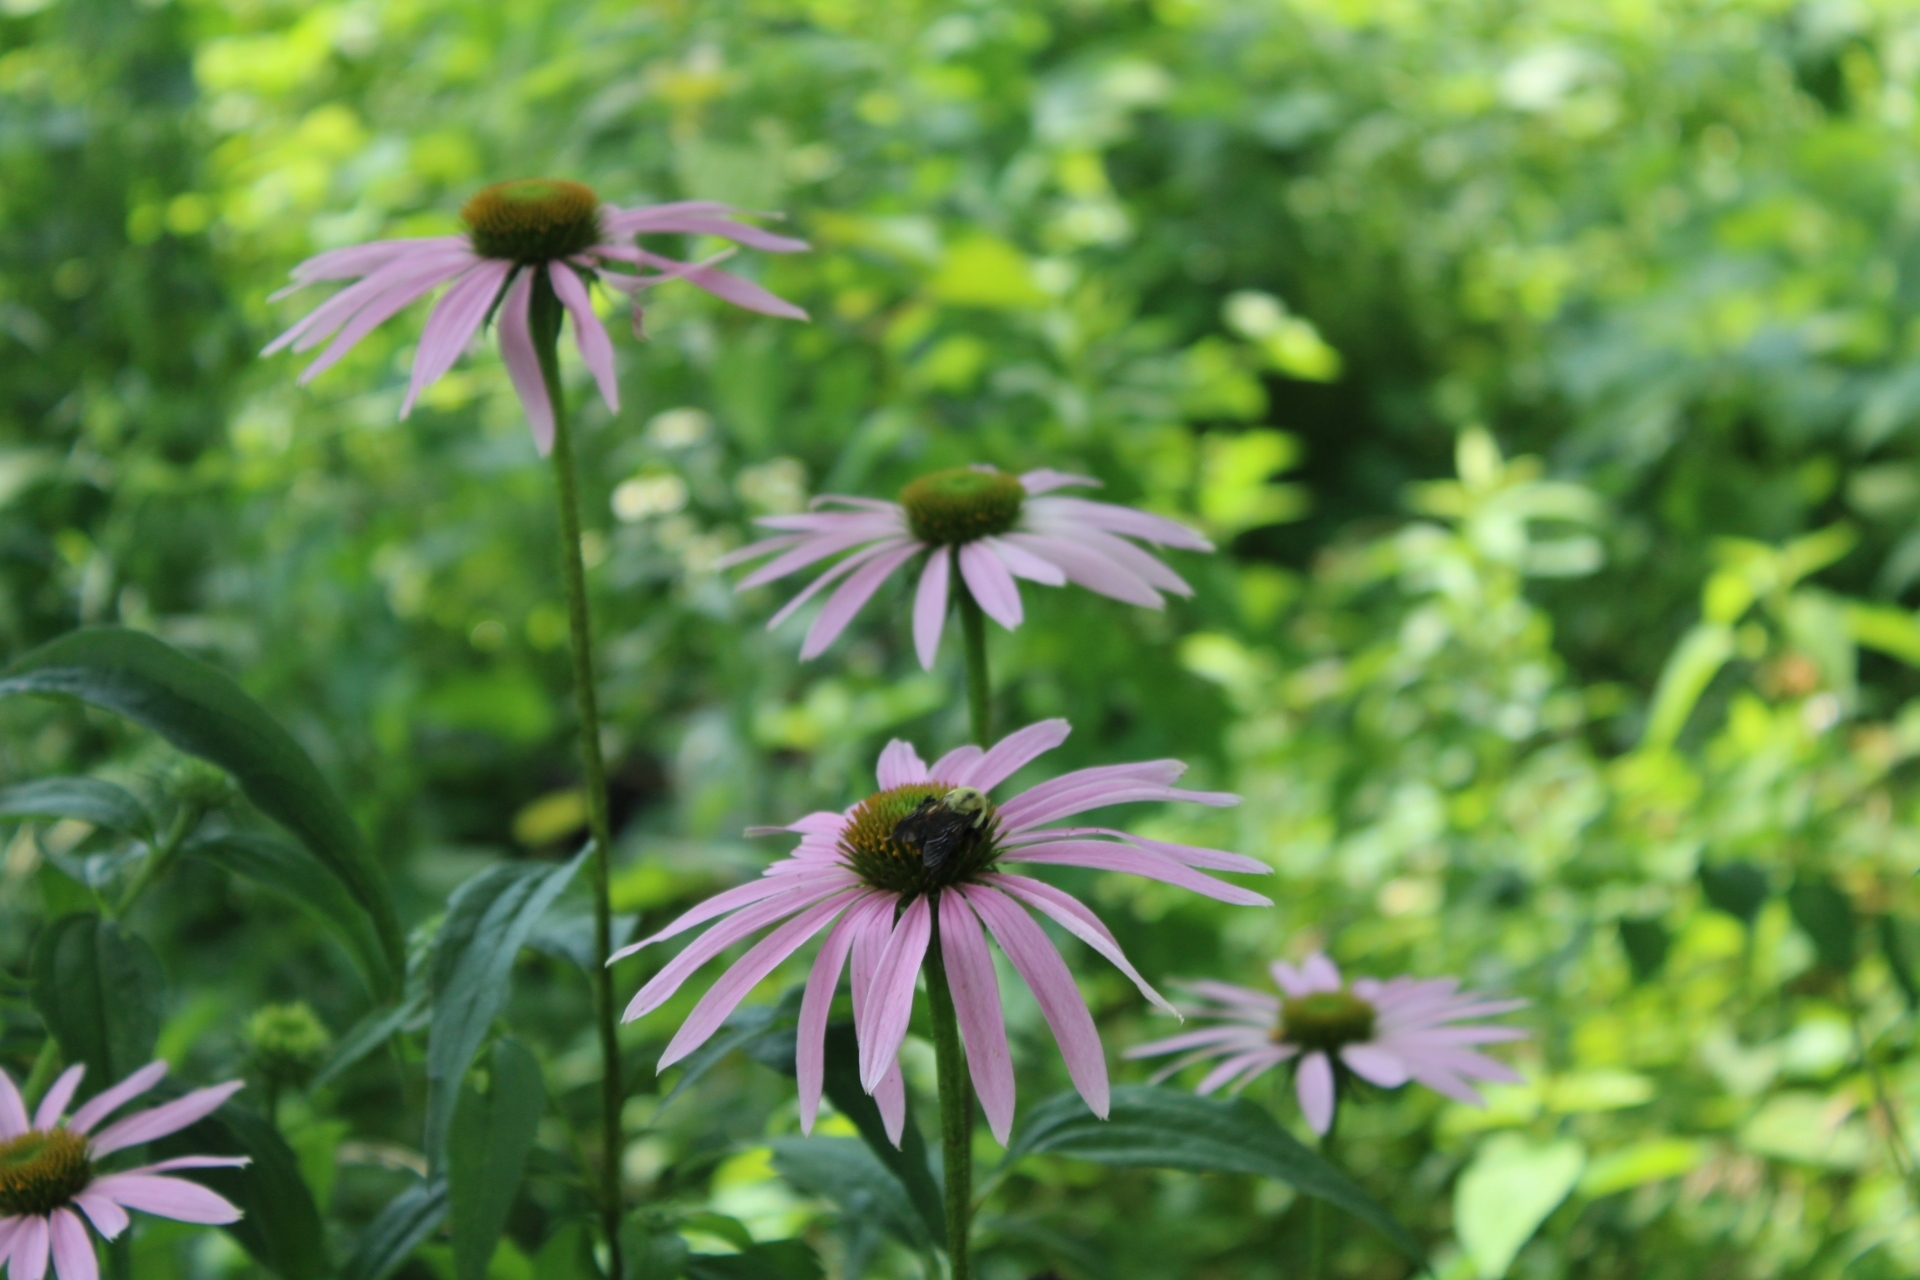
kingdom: Plantae
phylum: Tracheophyta
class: Magnoliopsida
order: Asterales
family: Asteraceae
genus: Echinacea
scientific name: Echinacea purpurea
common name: Broad-leaved purple coneflower
